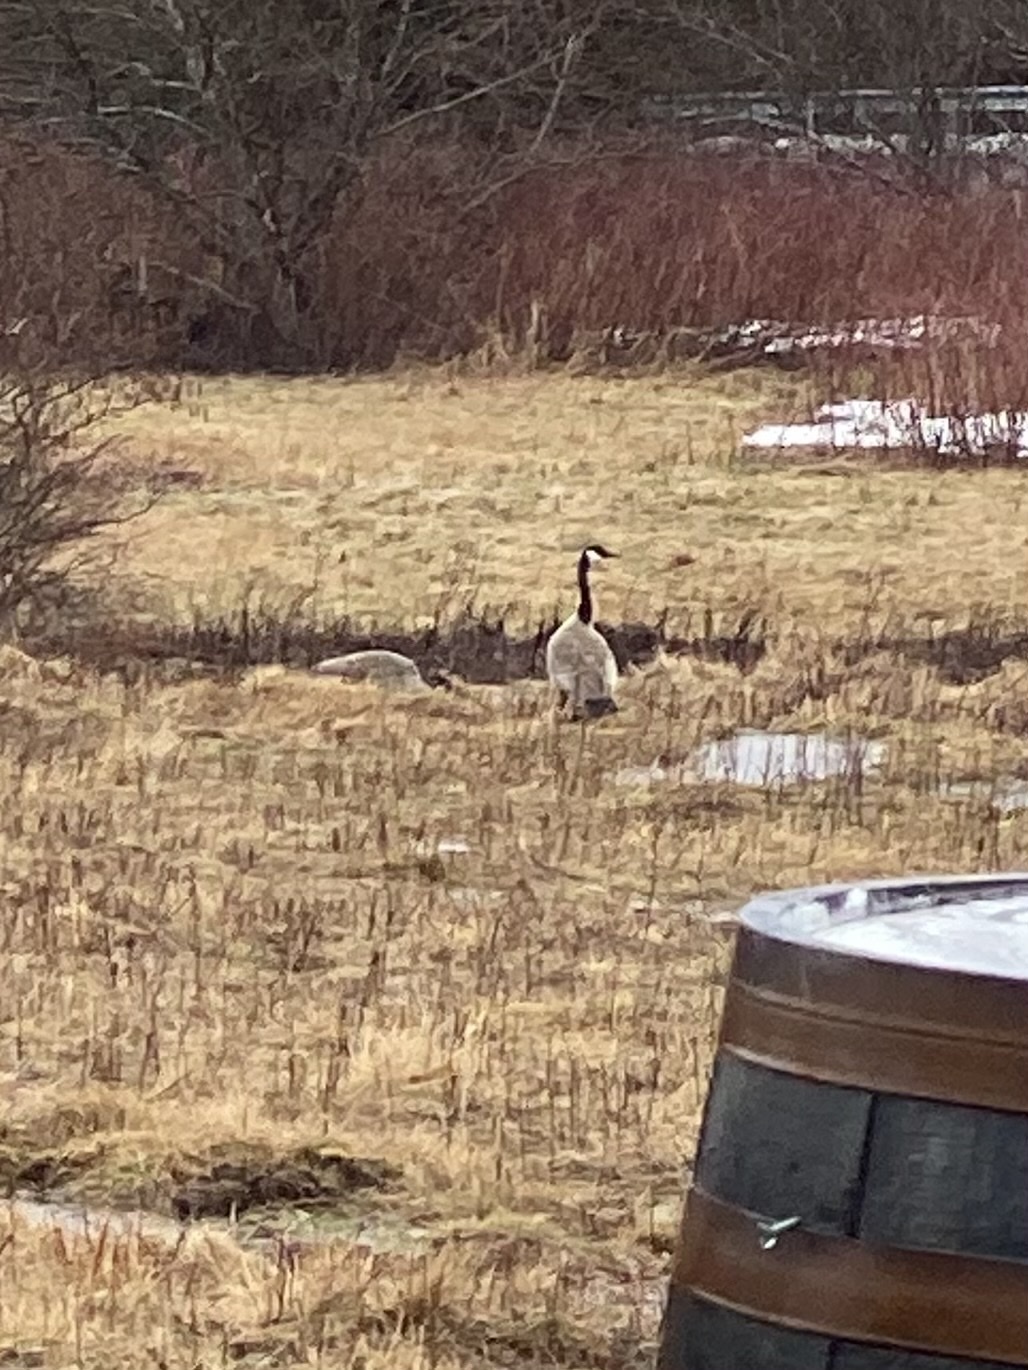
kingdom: Animalia
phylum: Chordata
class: Aves
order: Anseriformes
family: Anatidae
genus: Branta
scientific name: Branta canadensis
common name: Canada goose
